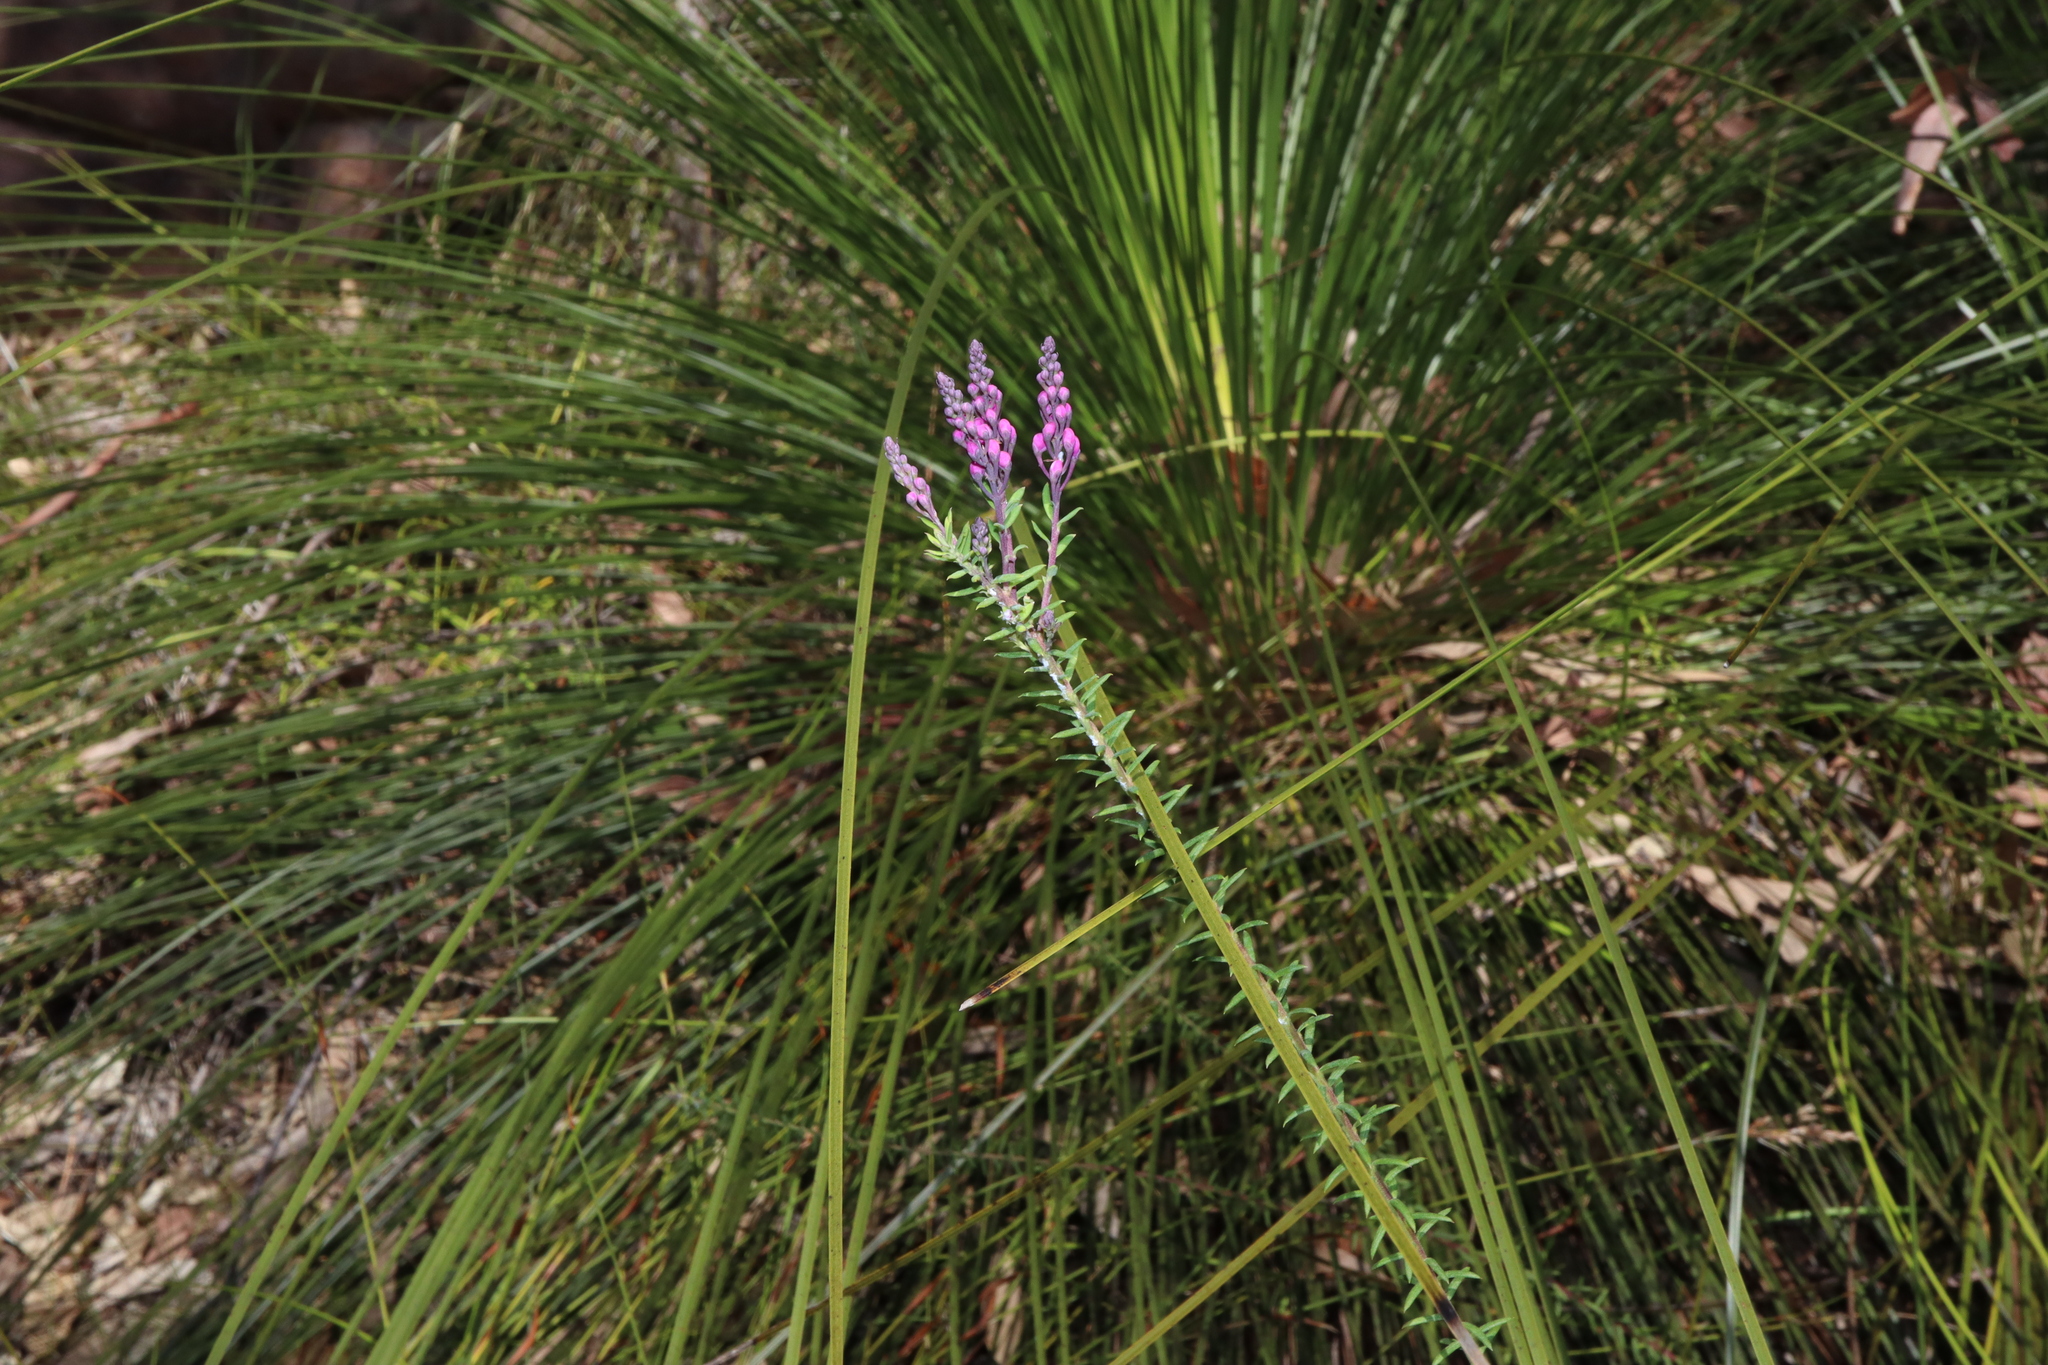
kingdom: Plantae
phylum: Tracheophyta
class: Magnoliopsida
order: Fabales
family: Polygalaceae
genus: Comesperma
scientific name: Comesperma ericinum
